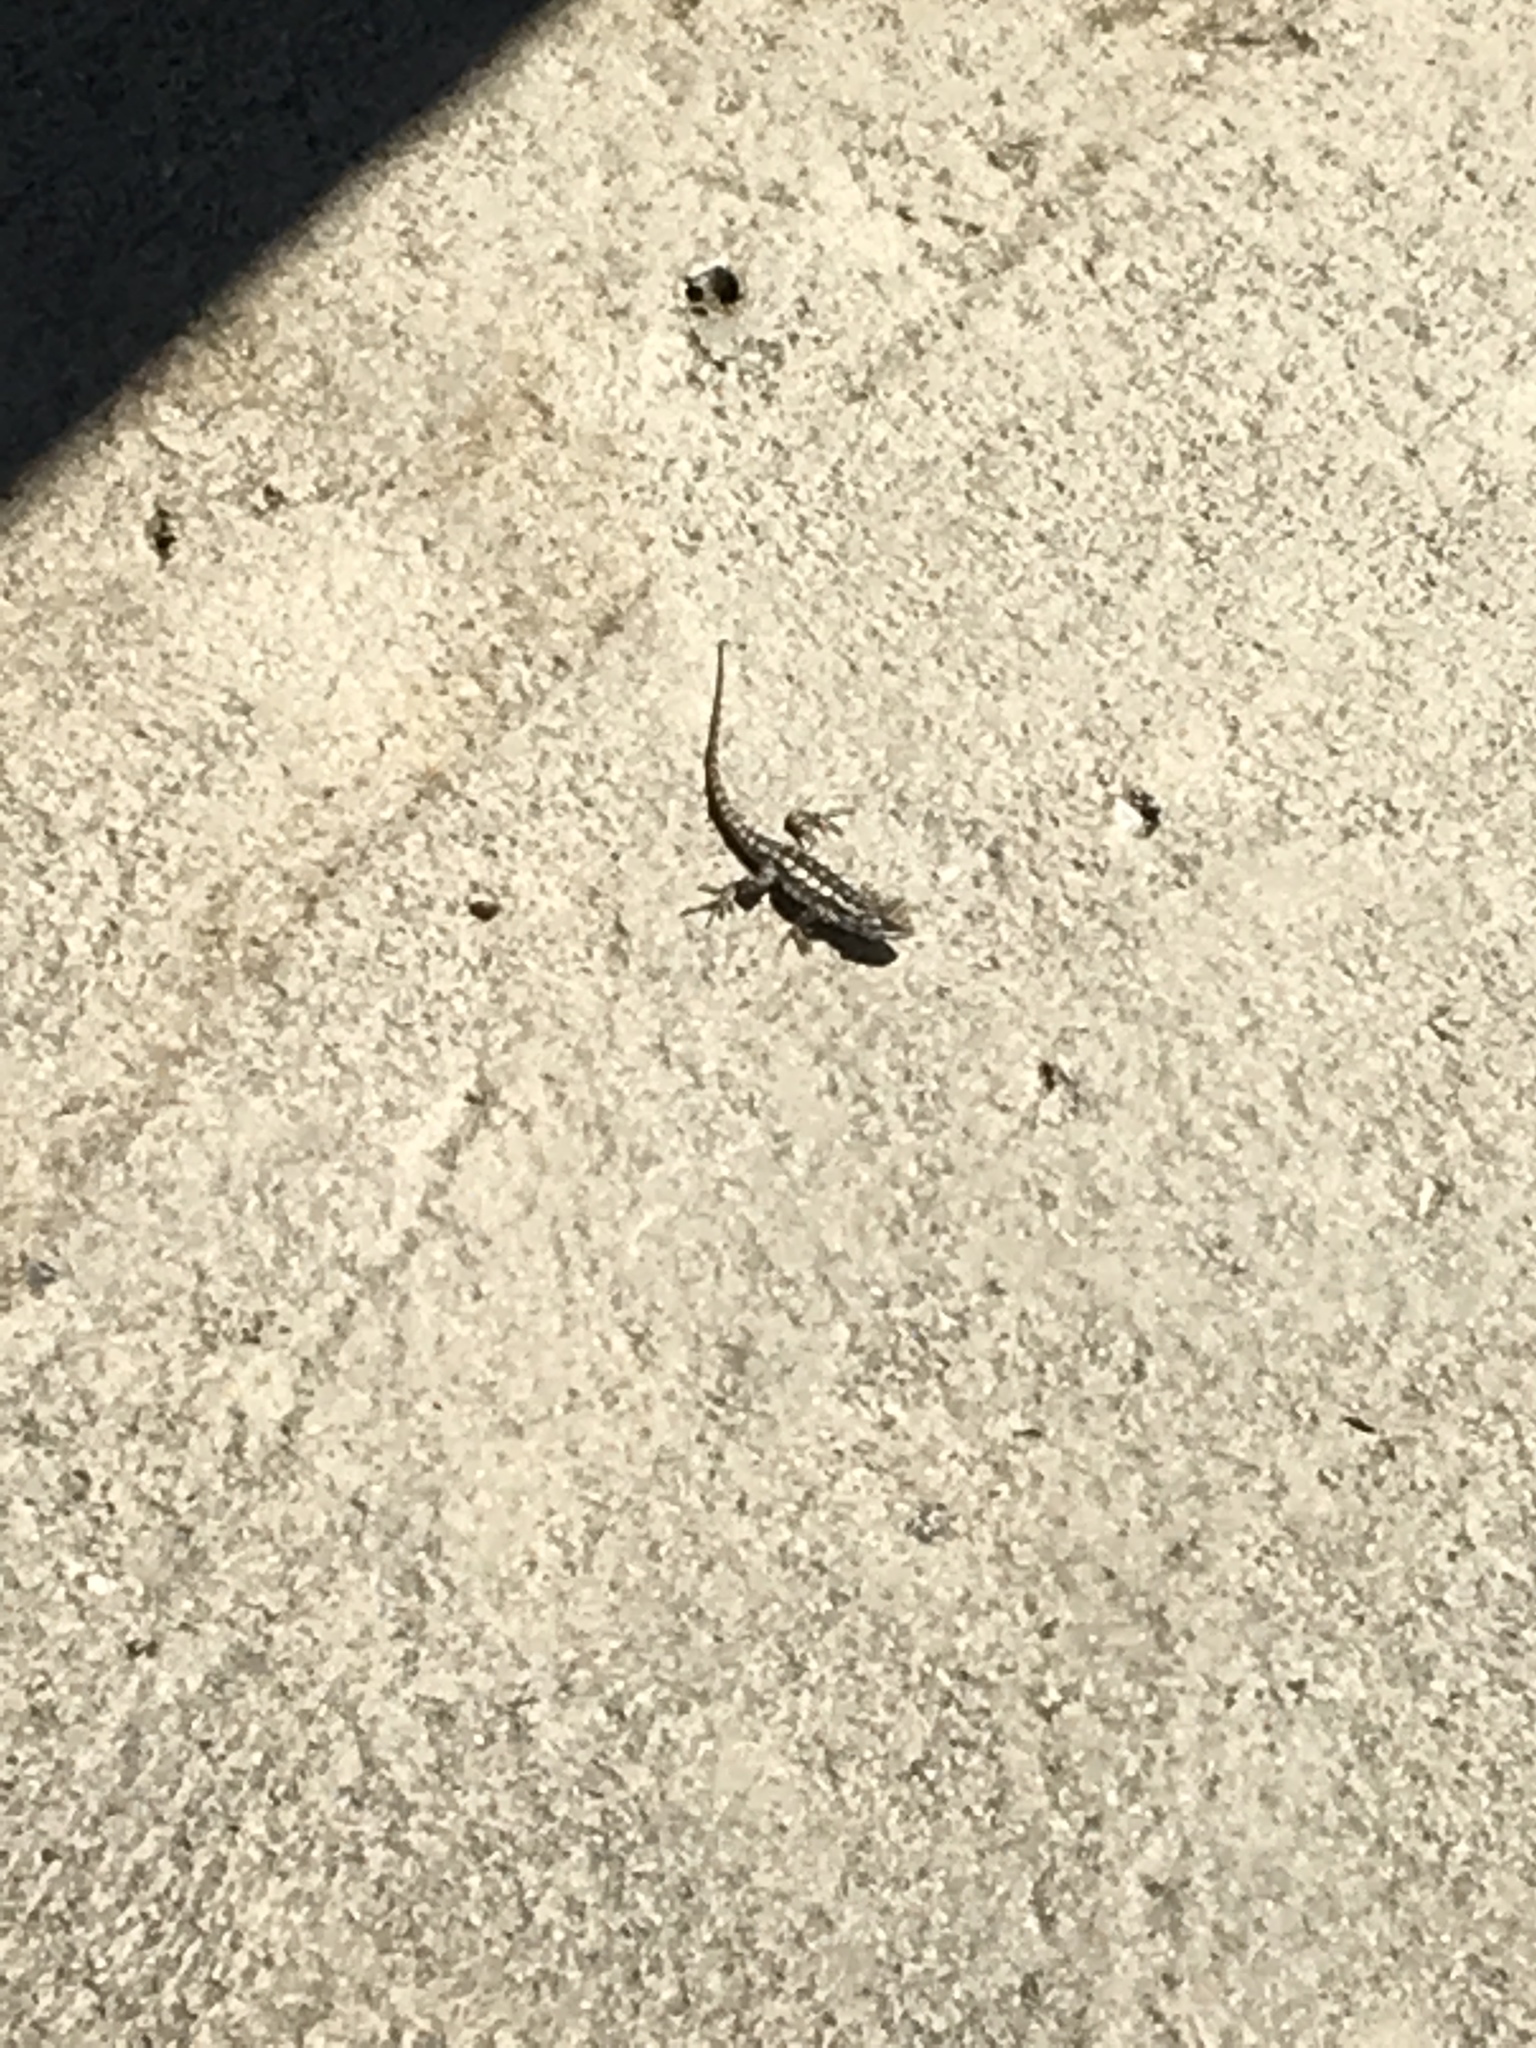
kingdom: Animalia
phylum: Chordata
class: Squamata
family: Phrynosomatidae
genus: Sceloporus
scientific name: Sceloporus olivaceus
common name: Texas spiny lizard
